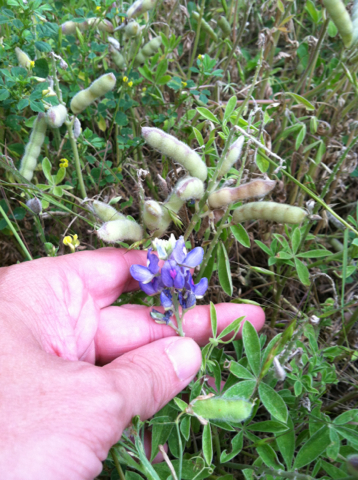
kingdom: Plantae
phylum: Tracheophyta
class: Magnoliopsida
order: Fabales
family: Fabaceae
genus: Lupinus
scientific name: Lupinus texensis
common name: Texas bluebonnet
